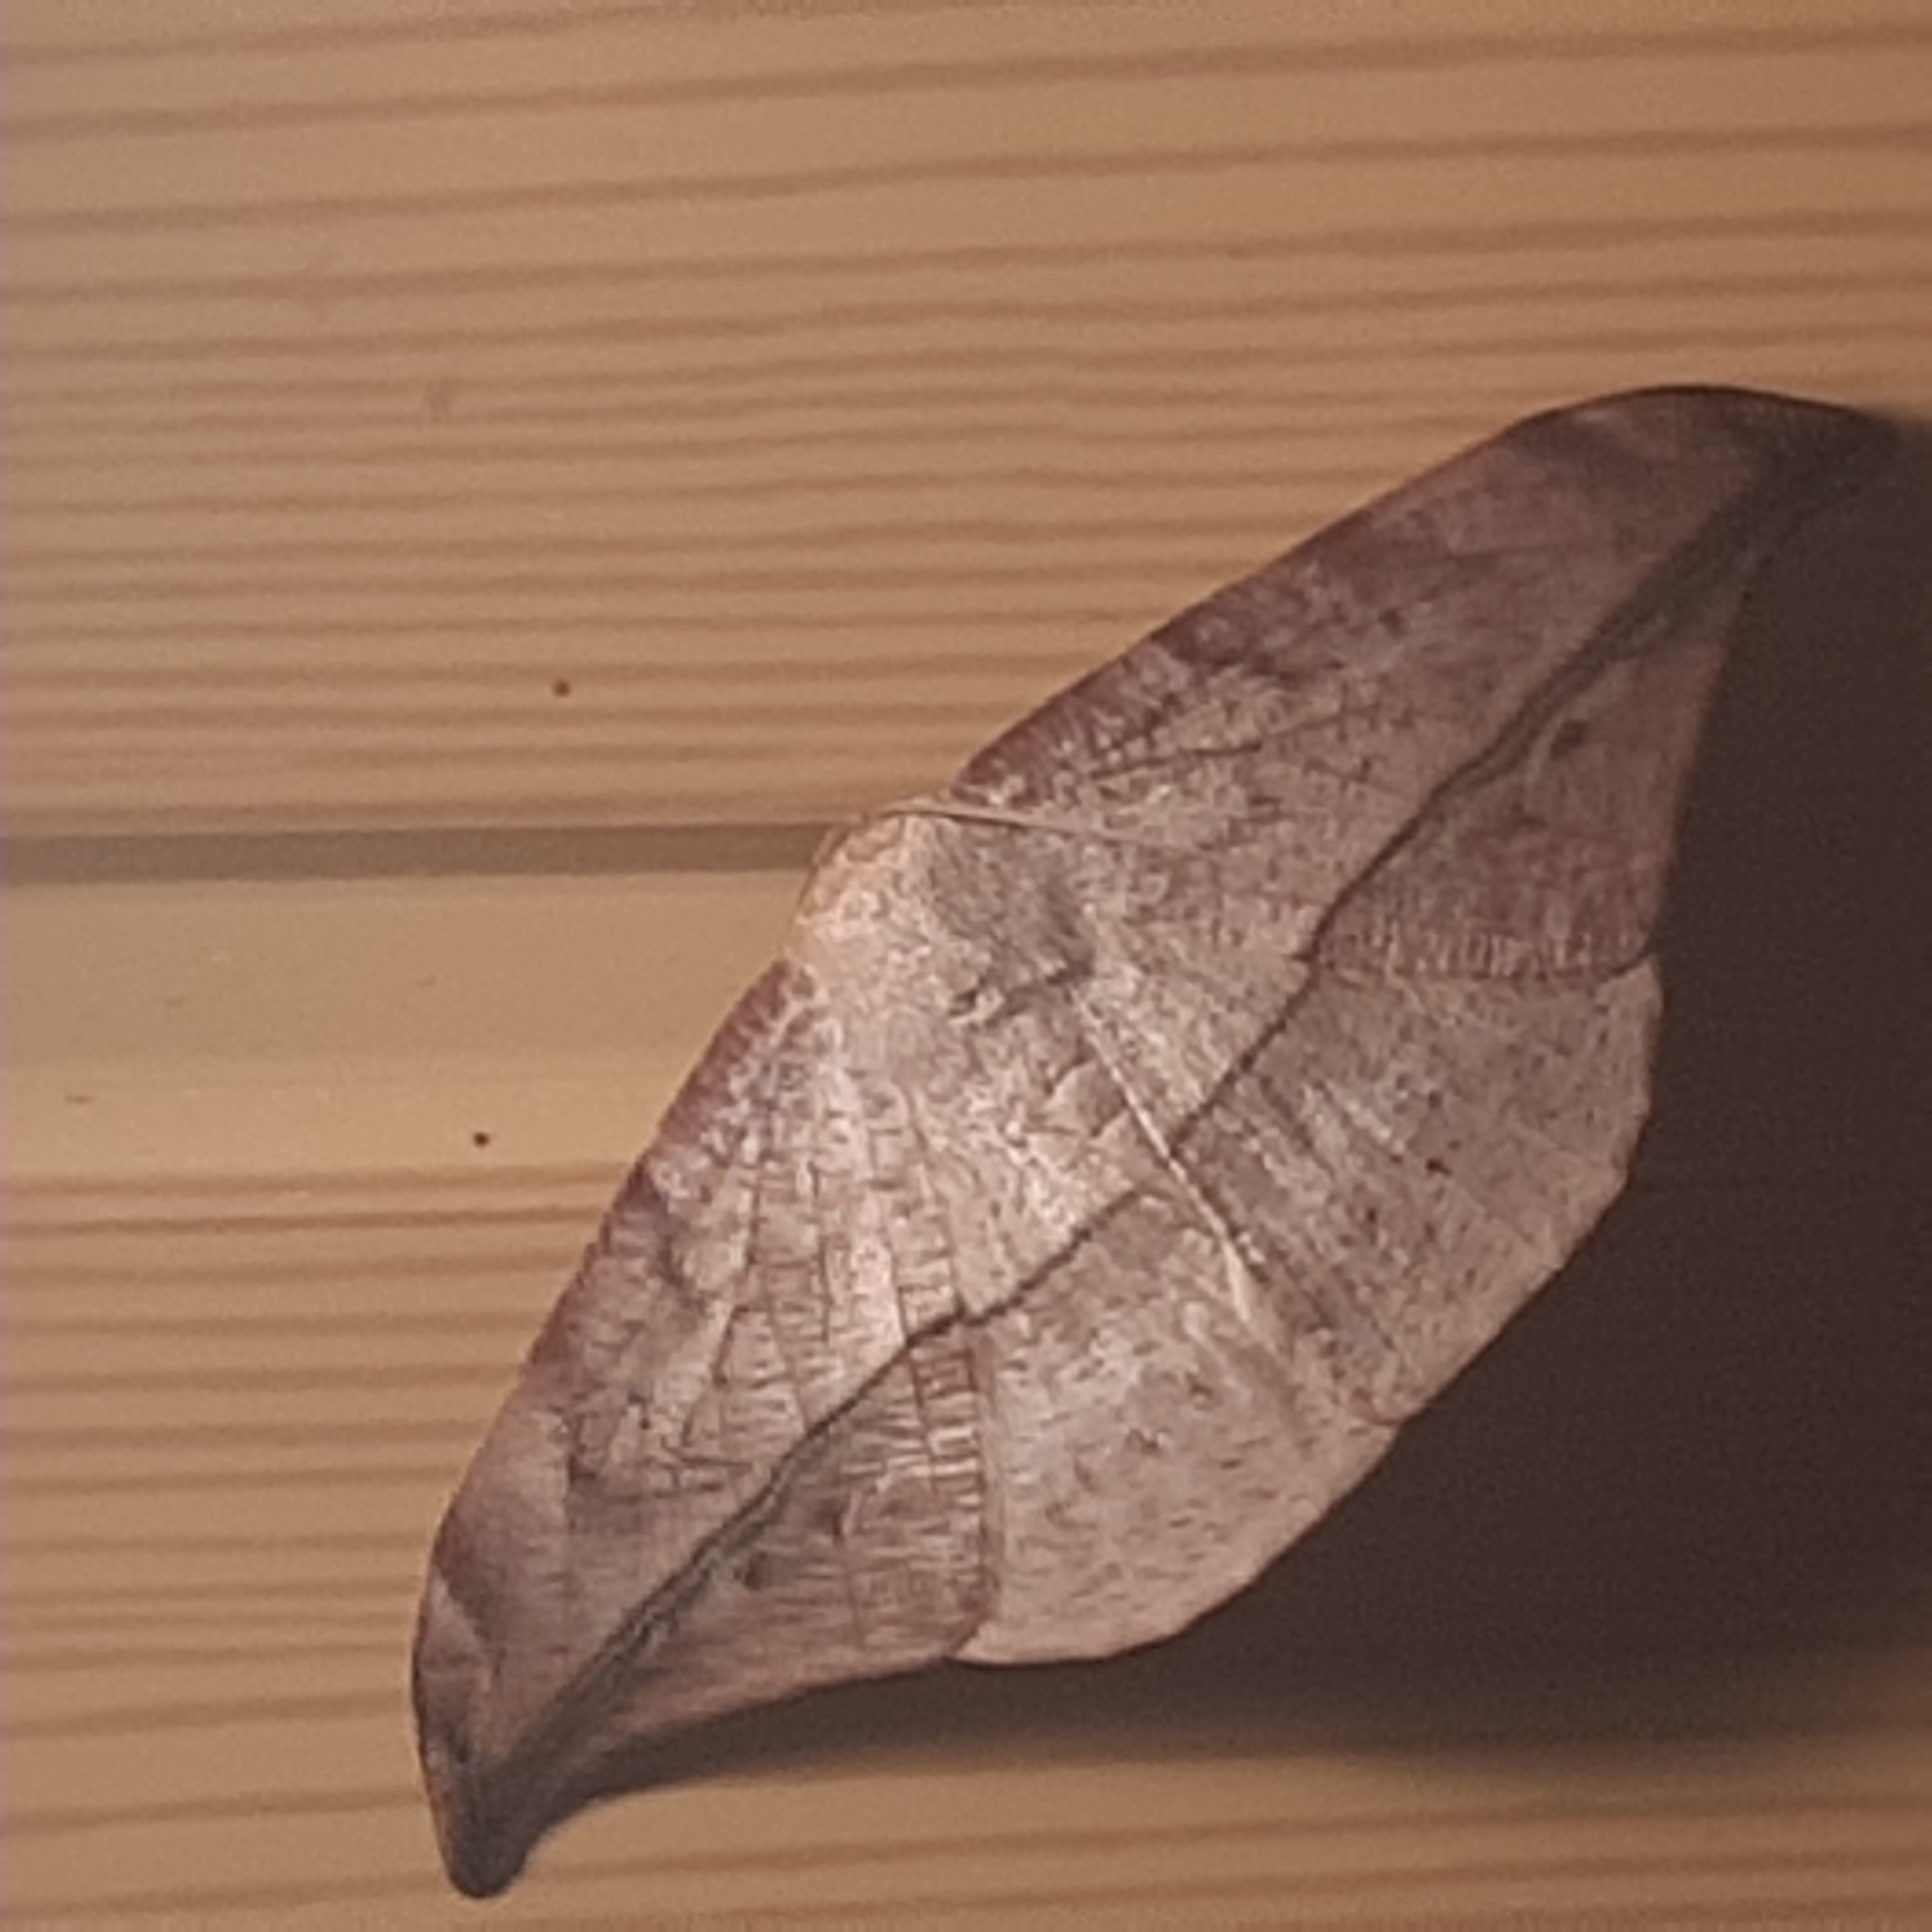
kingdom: Animalia
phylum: Arthropoda
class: Insecta
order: Lepidoptera
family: Geometridae
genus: Oxydia
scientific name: Oxydia augusta
